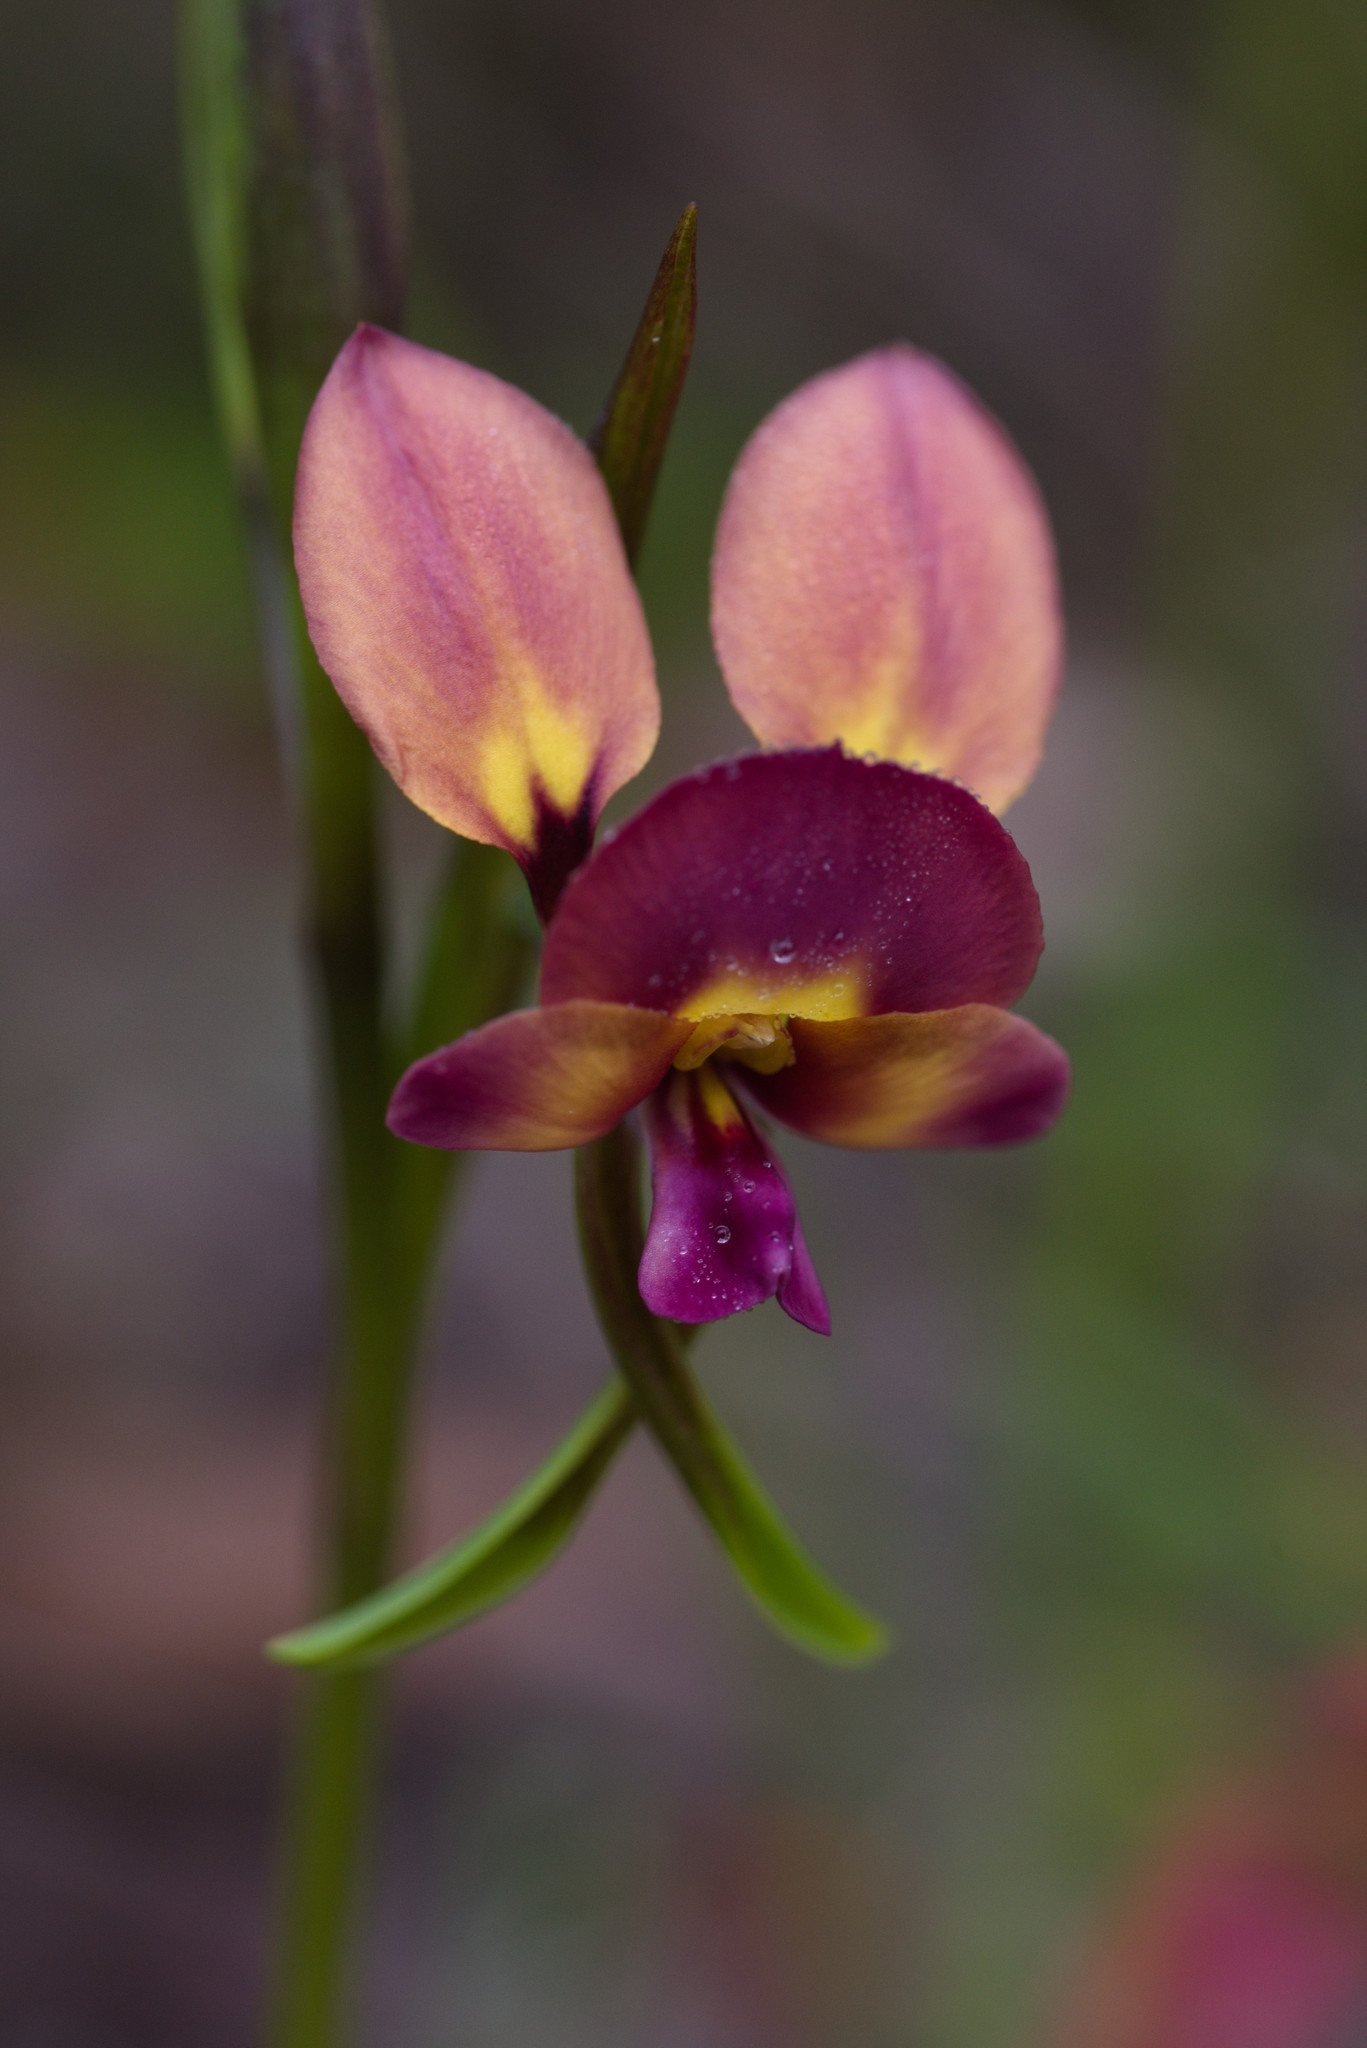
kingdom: Plantae
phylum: Tracheophyta
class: Liliopsida
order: Asparagales
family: Orchidaceae
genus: Diuris
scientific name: Diuris longifolia
